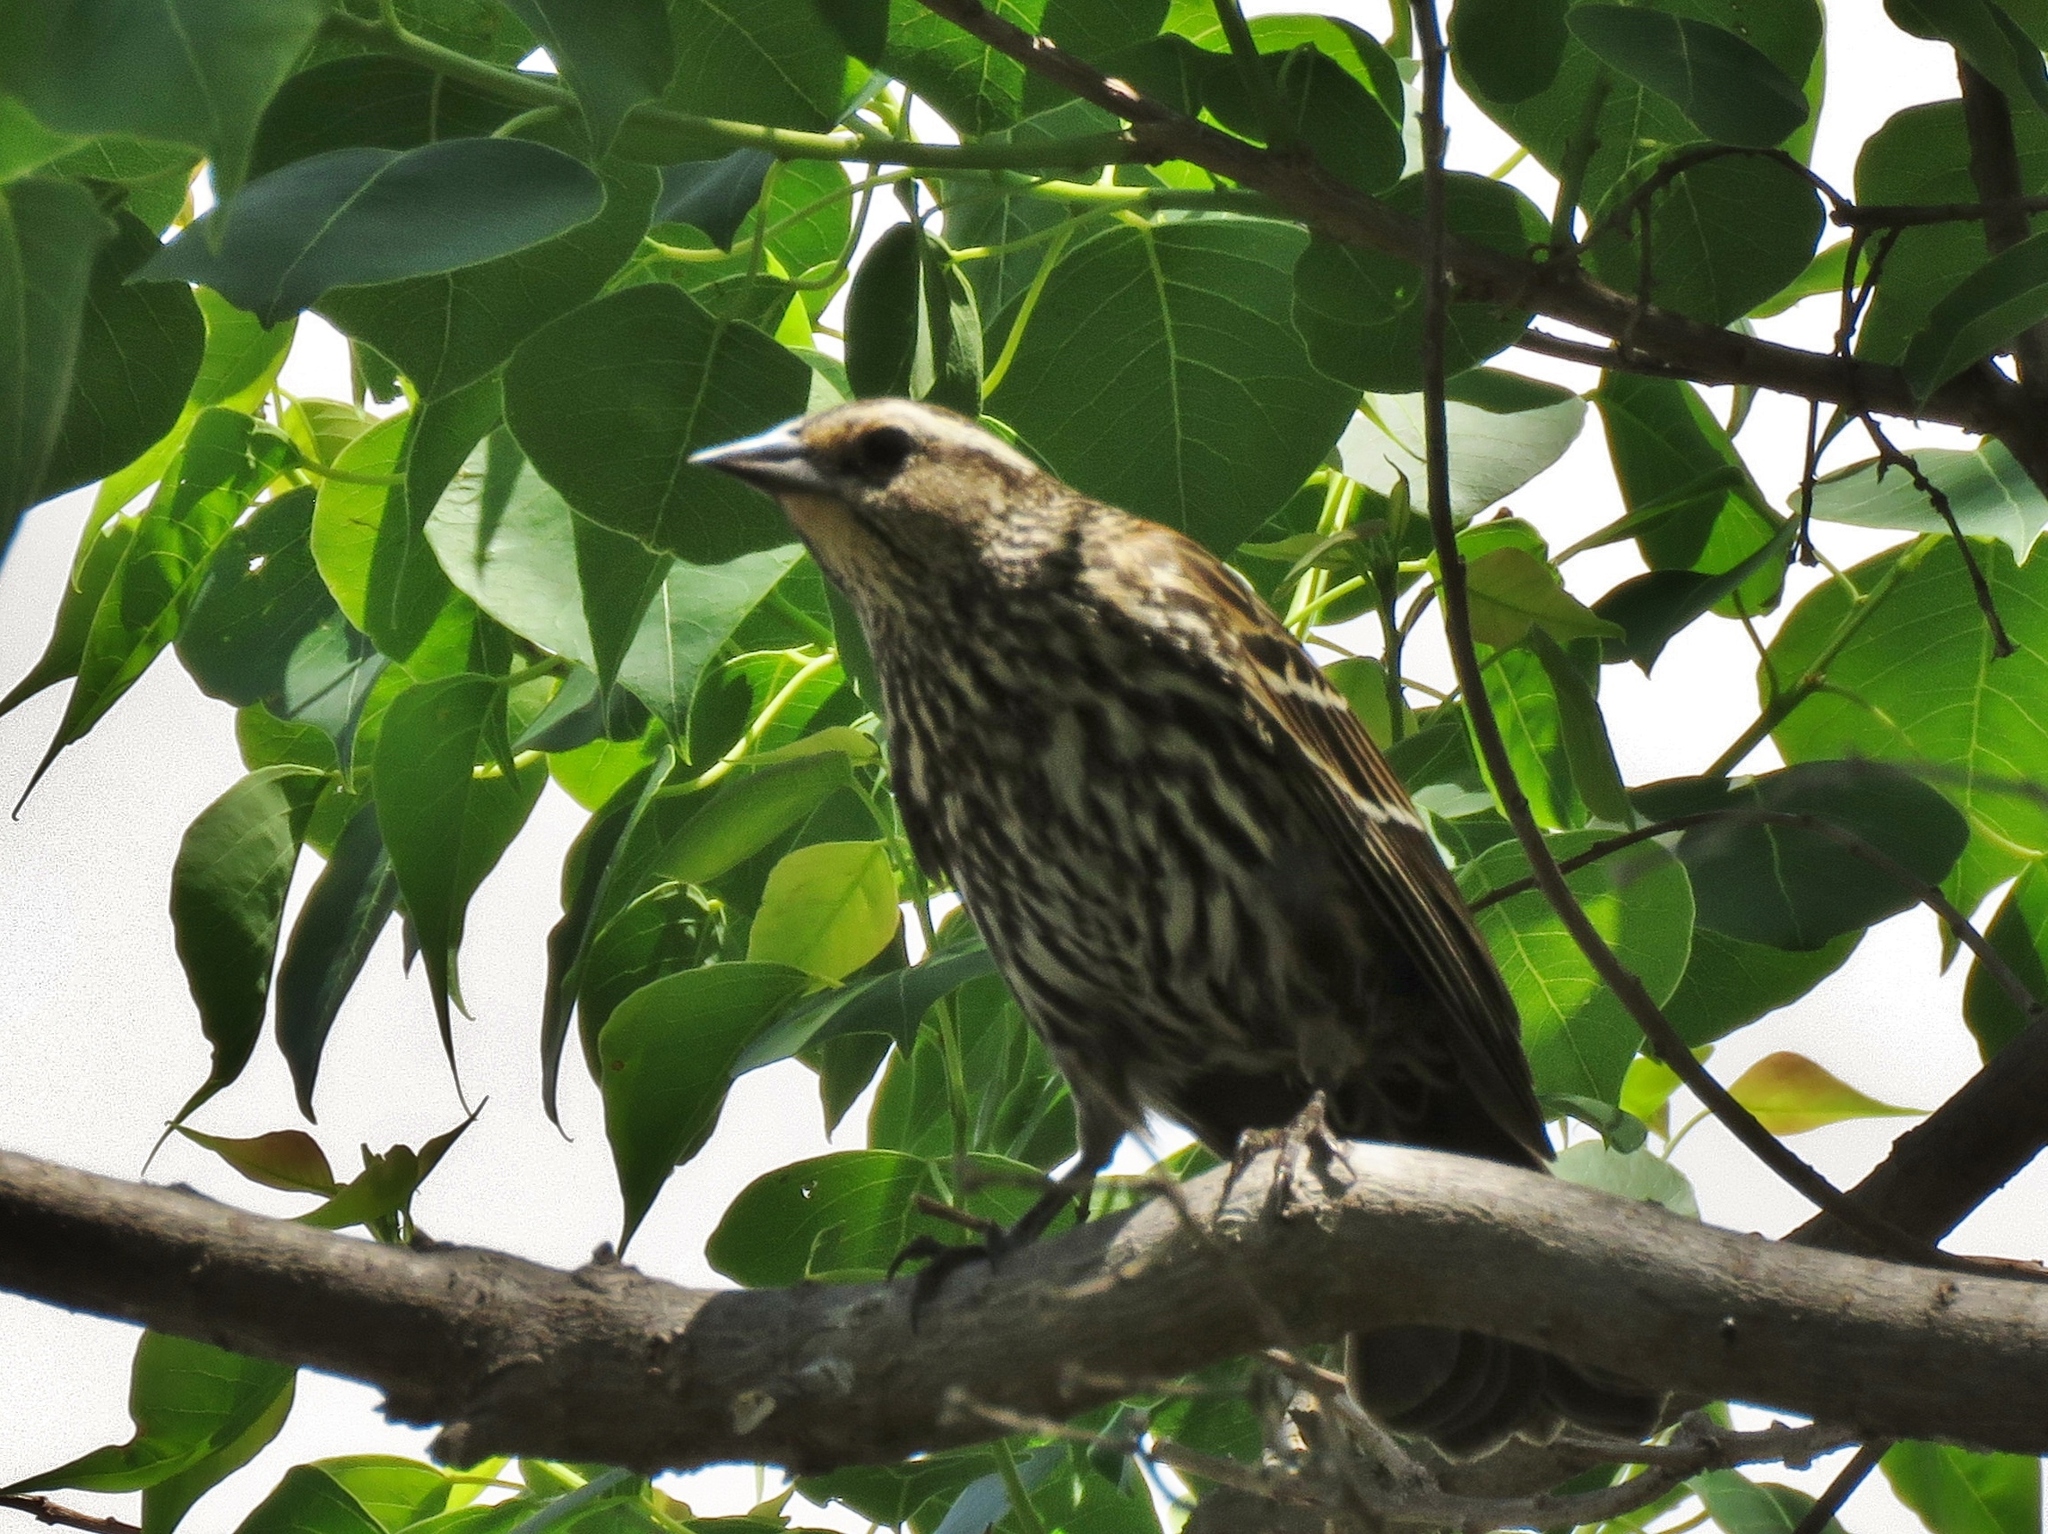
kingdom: Animalia
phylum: Chordata
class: Aves
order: Passeriformes
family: Icteridae
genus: Agelaius
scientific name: Agelaius phoeniceus
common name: Red-winged blackbird
